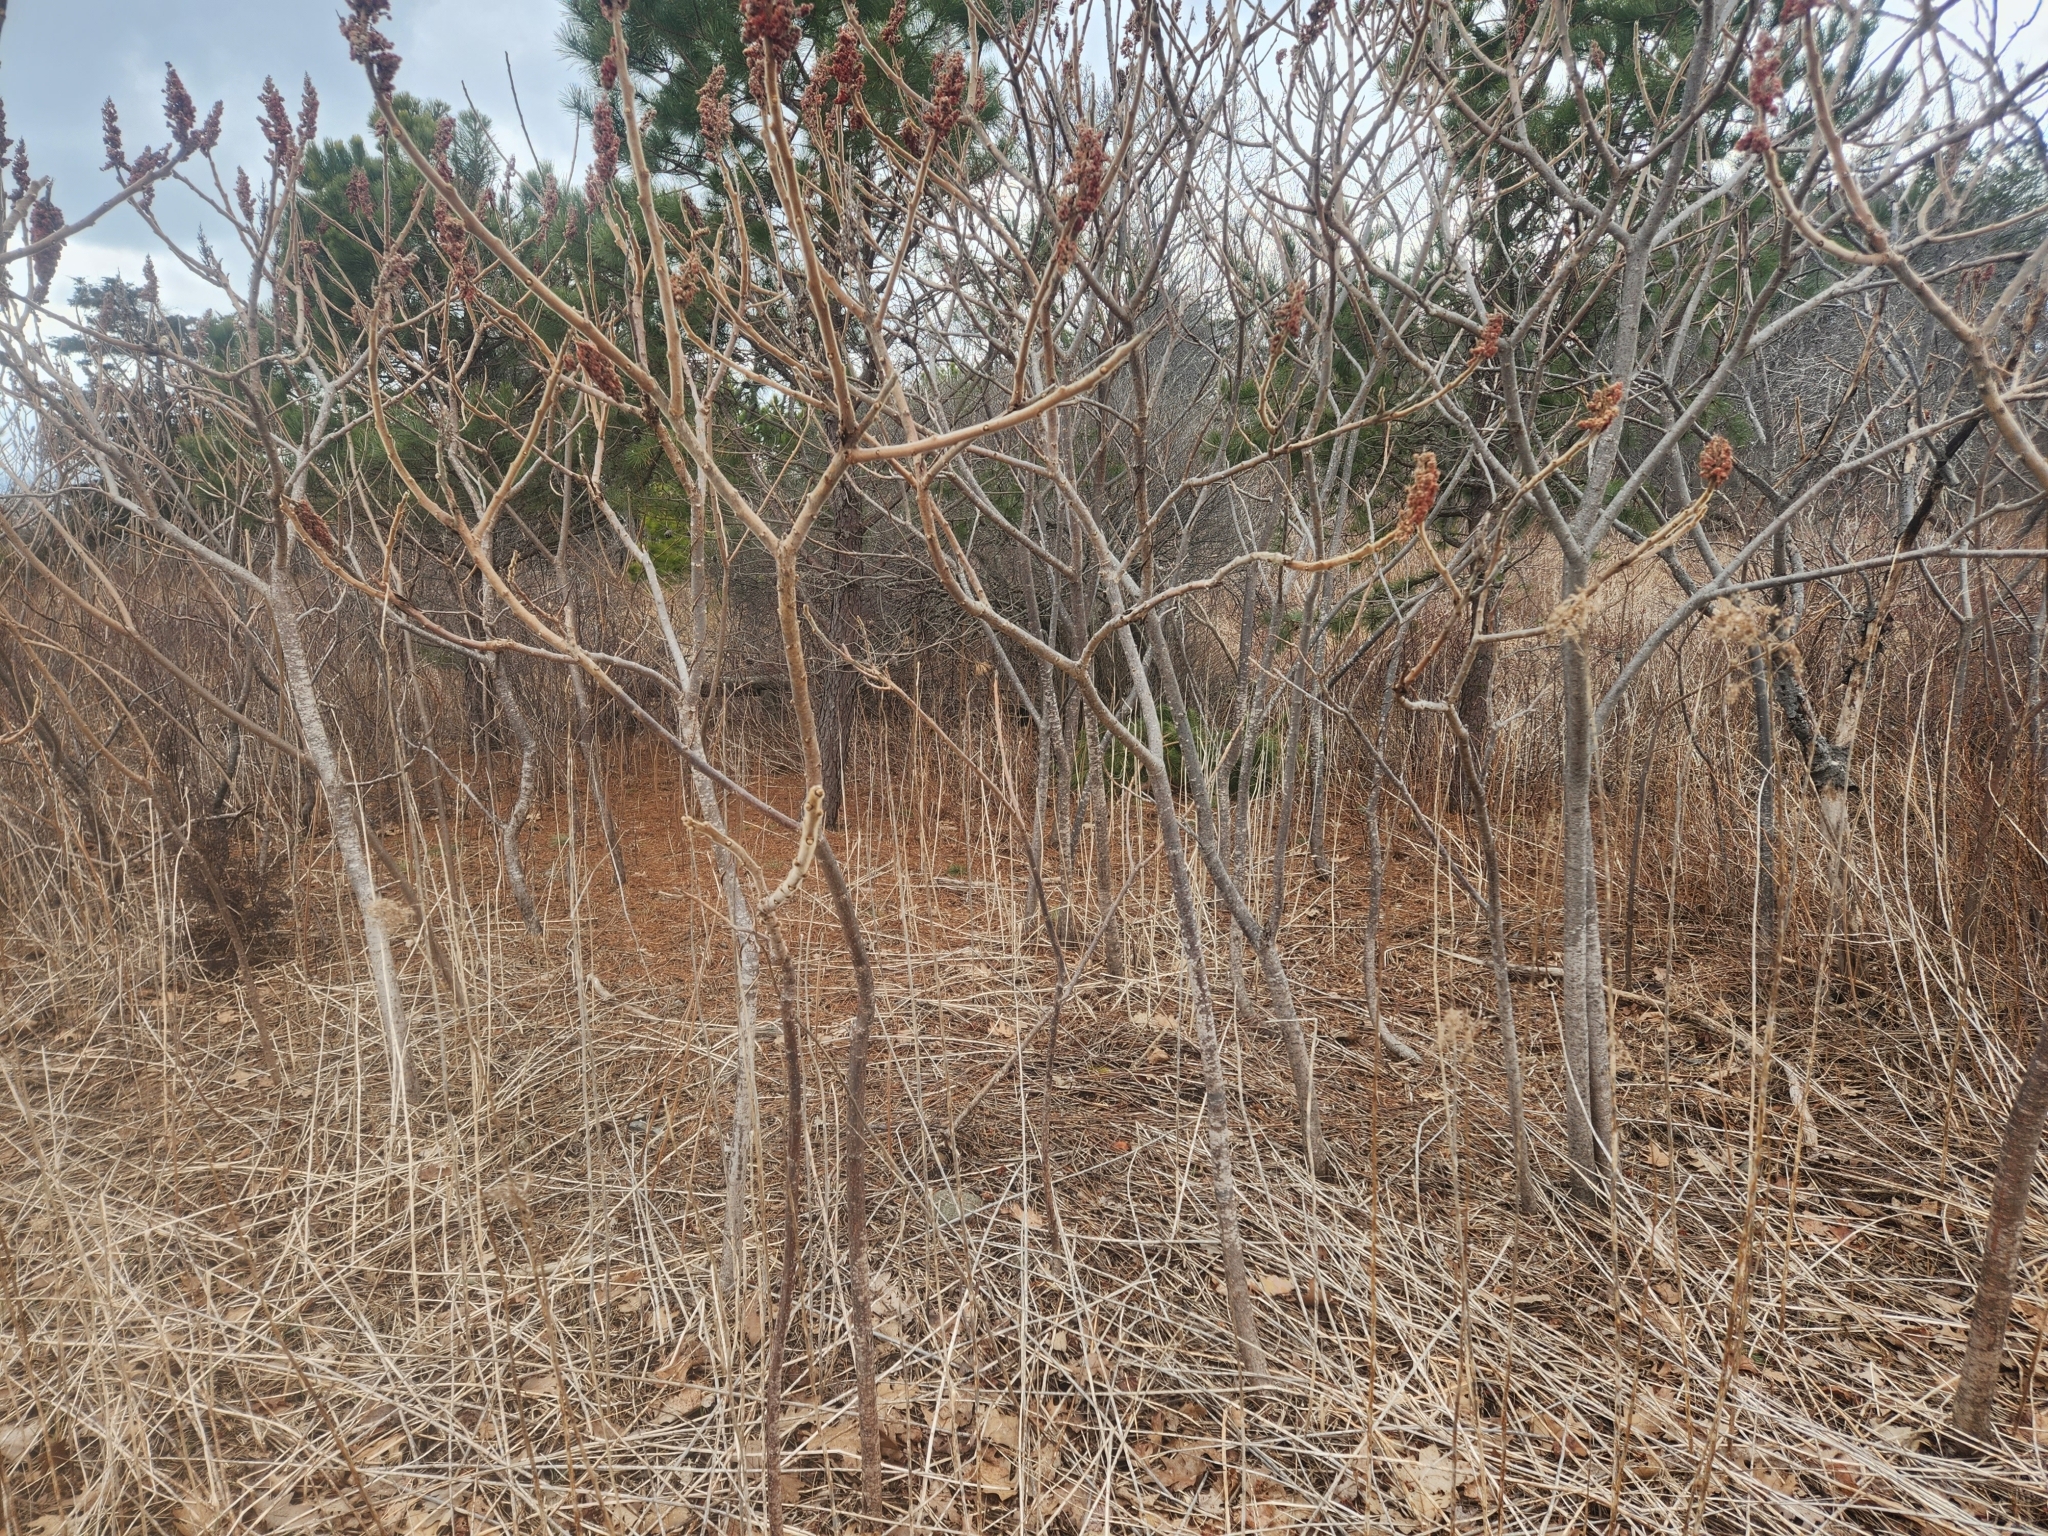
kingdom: Plantae
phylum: Tracheophyta
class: Magnoliopsida
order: Sapindales
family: Anacardiaceae
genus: Rhus
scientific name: Rhus typhina
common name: Staghorn sumac
